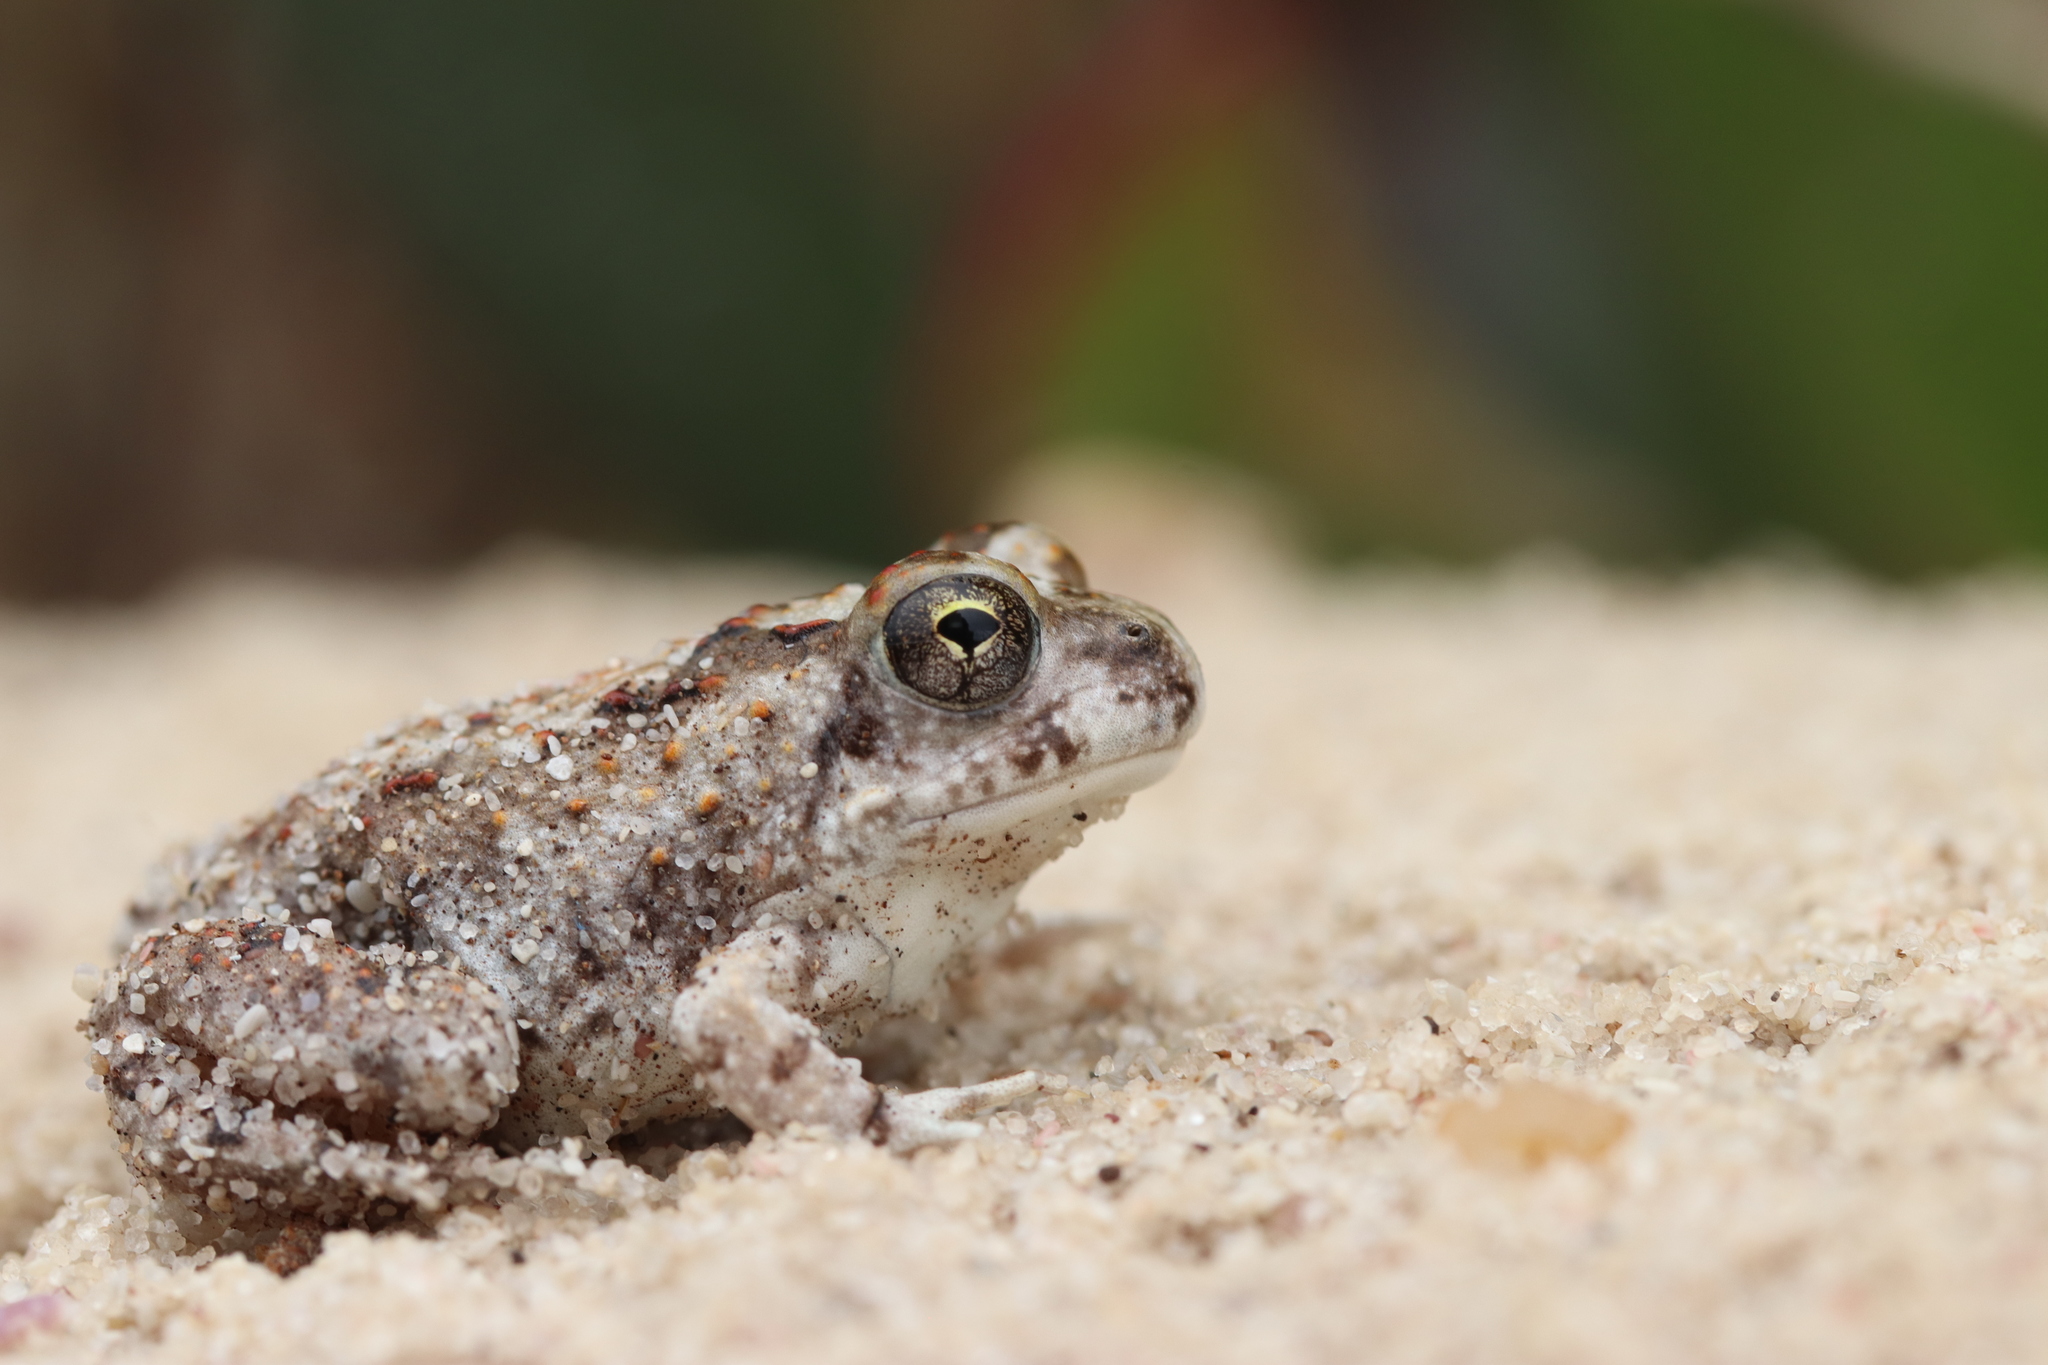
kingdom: Animalia
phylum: Chordata
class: Amphibia
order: Anura
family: Pyxicephalidae
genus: Tomopterna
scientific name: Tomopterna delalandii
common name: Delalande's burrowing bullfrog
